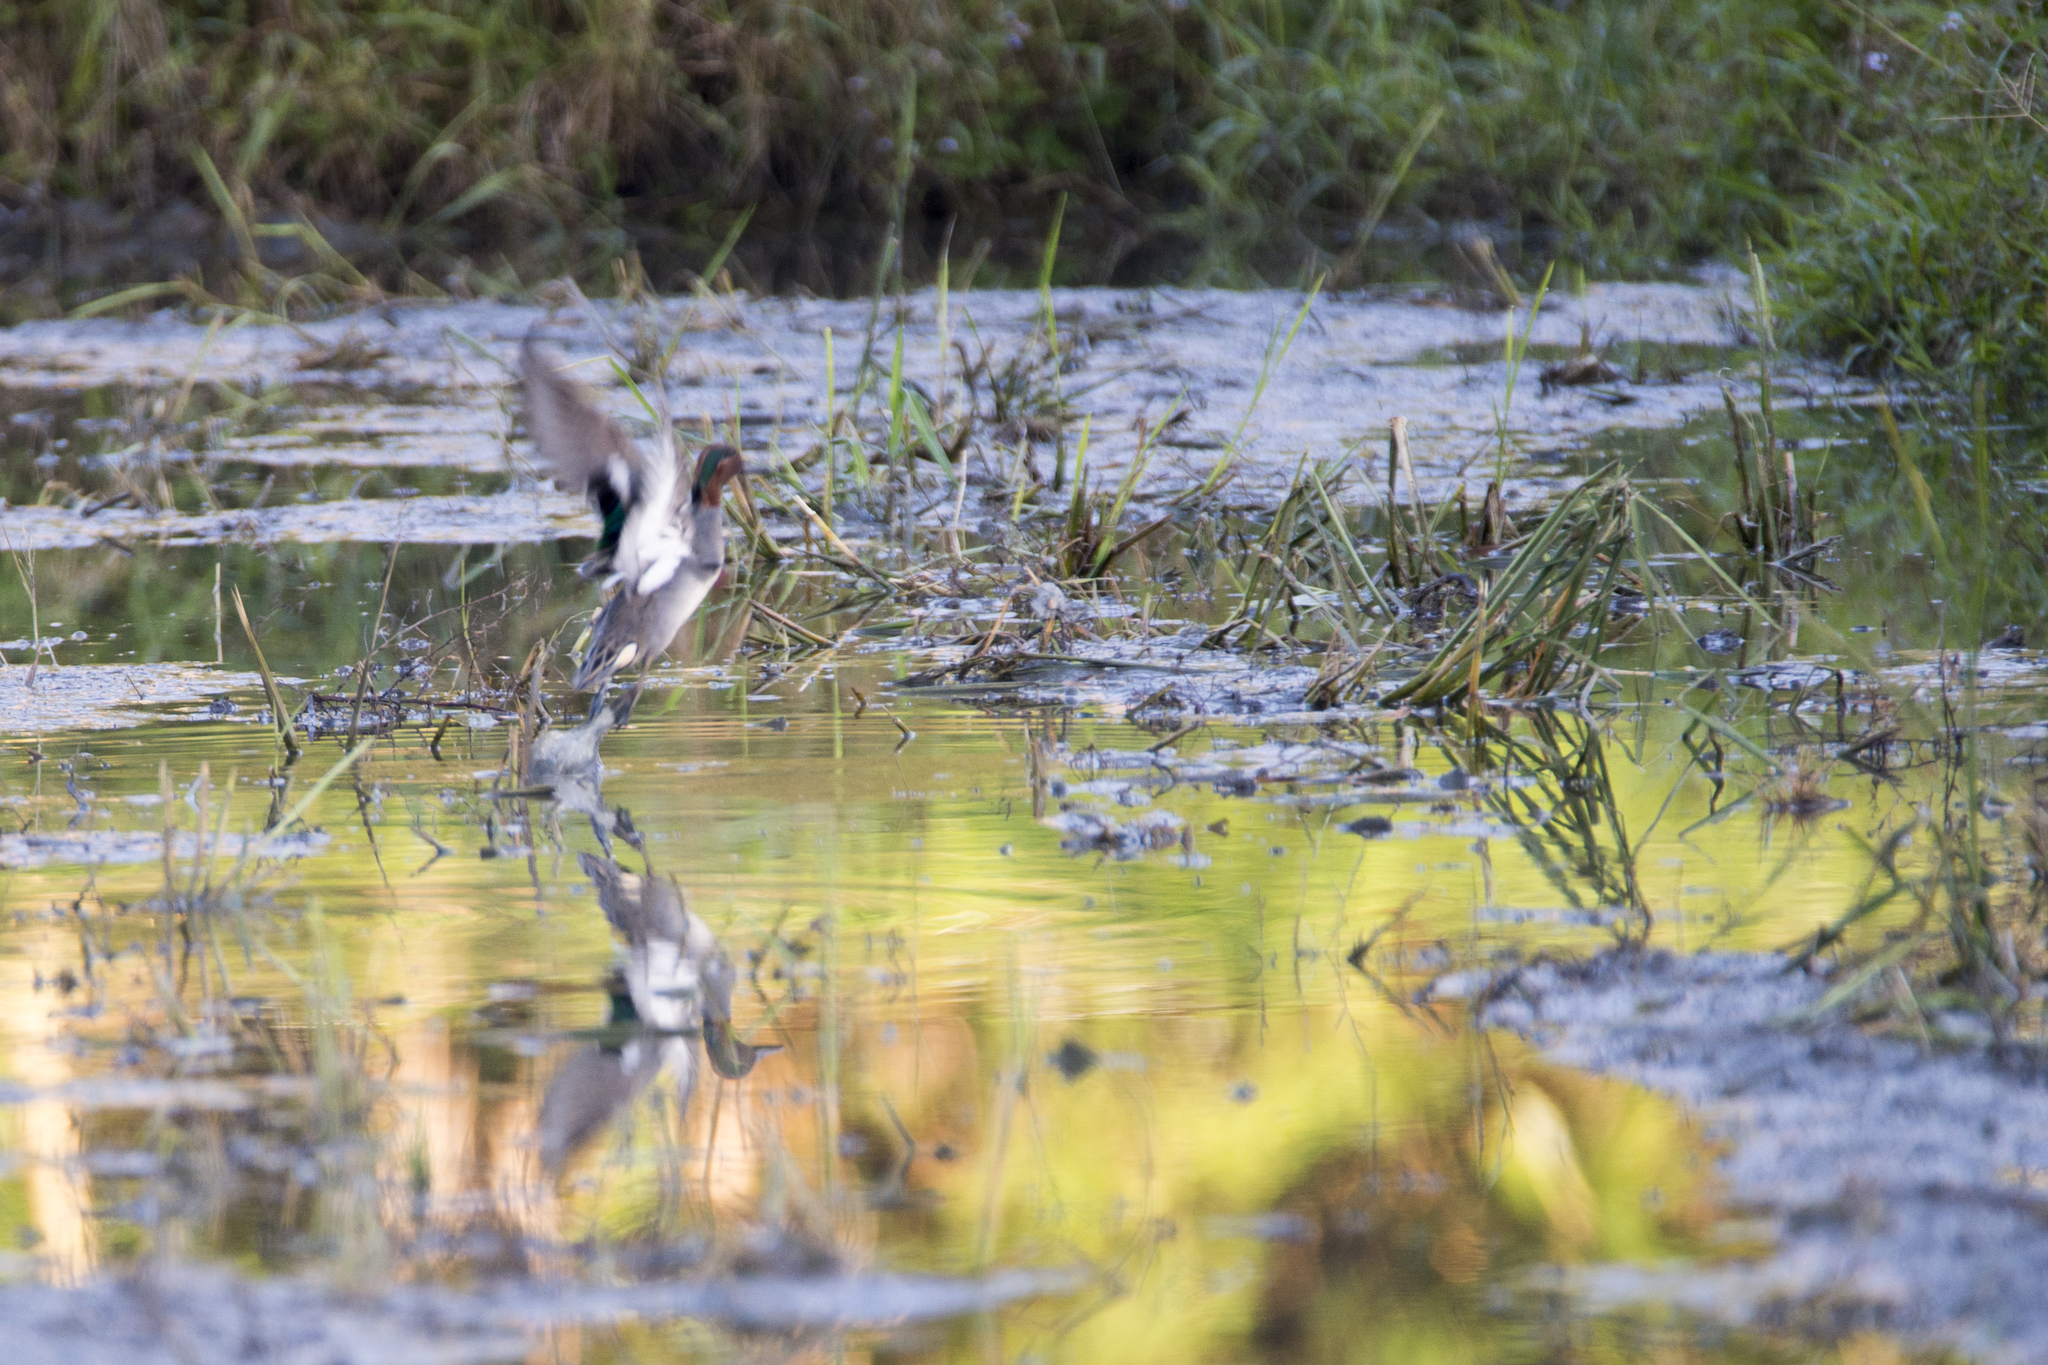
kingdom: Animalia
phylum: Chordata
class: Aves
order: Anseriformes
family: Anatidae
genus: Anas
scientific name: Anas crecca
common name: Eurasian teal
